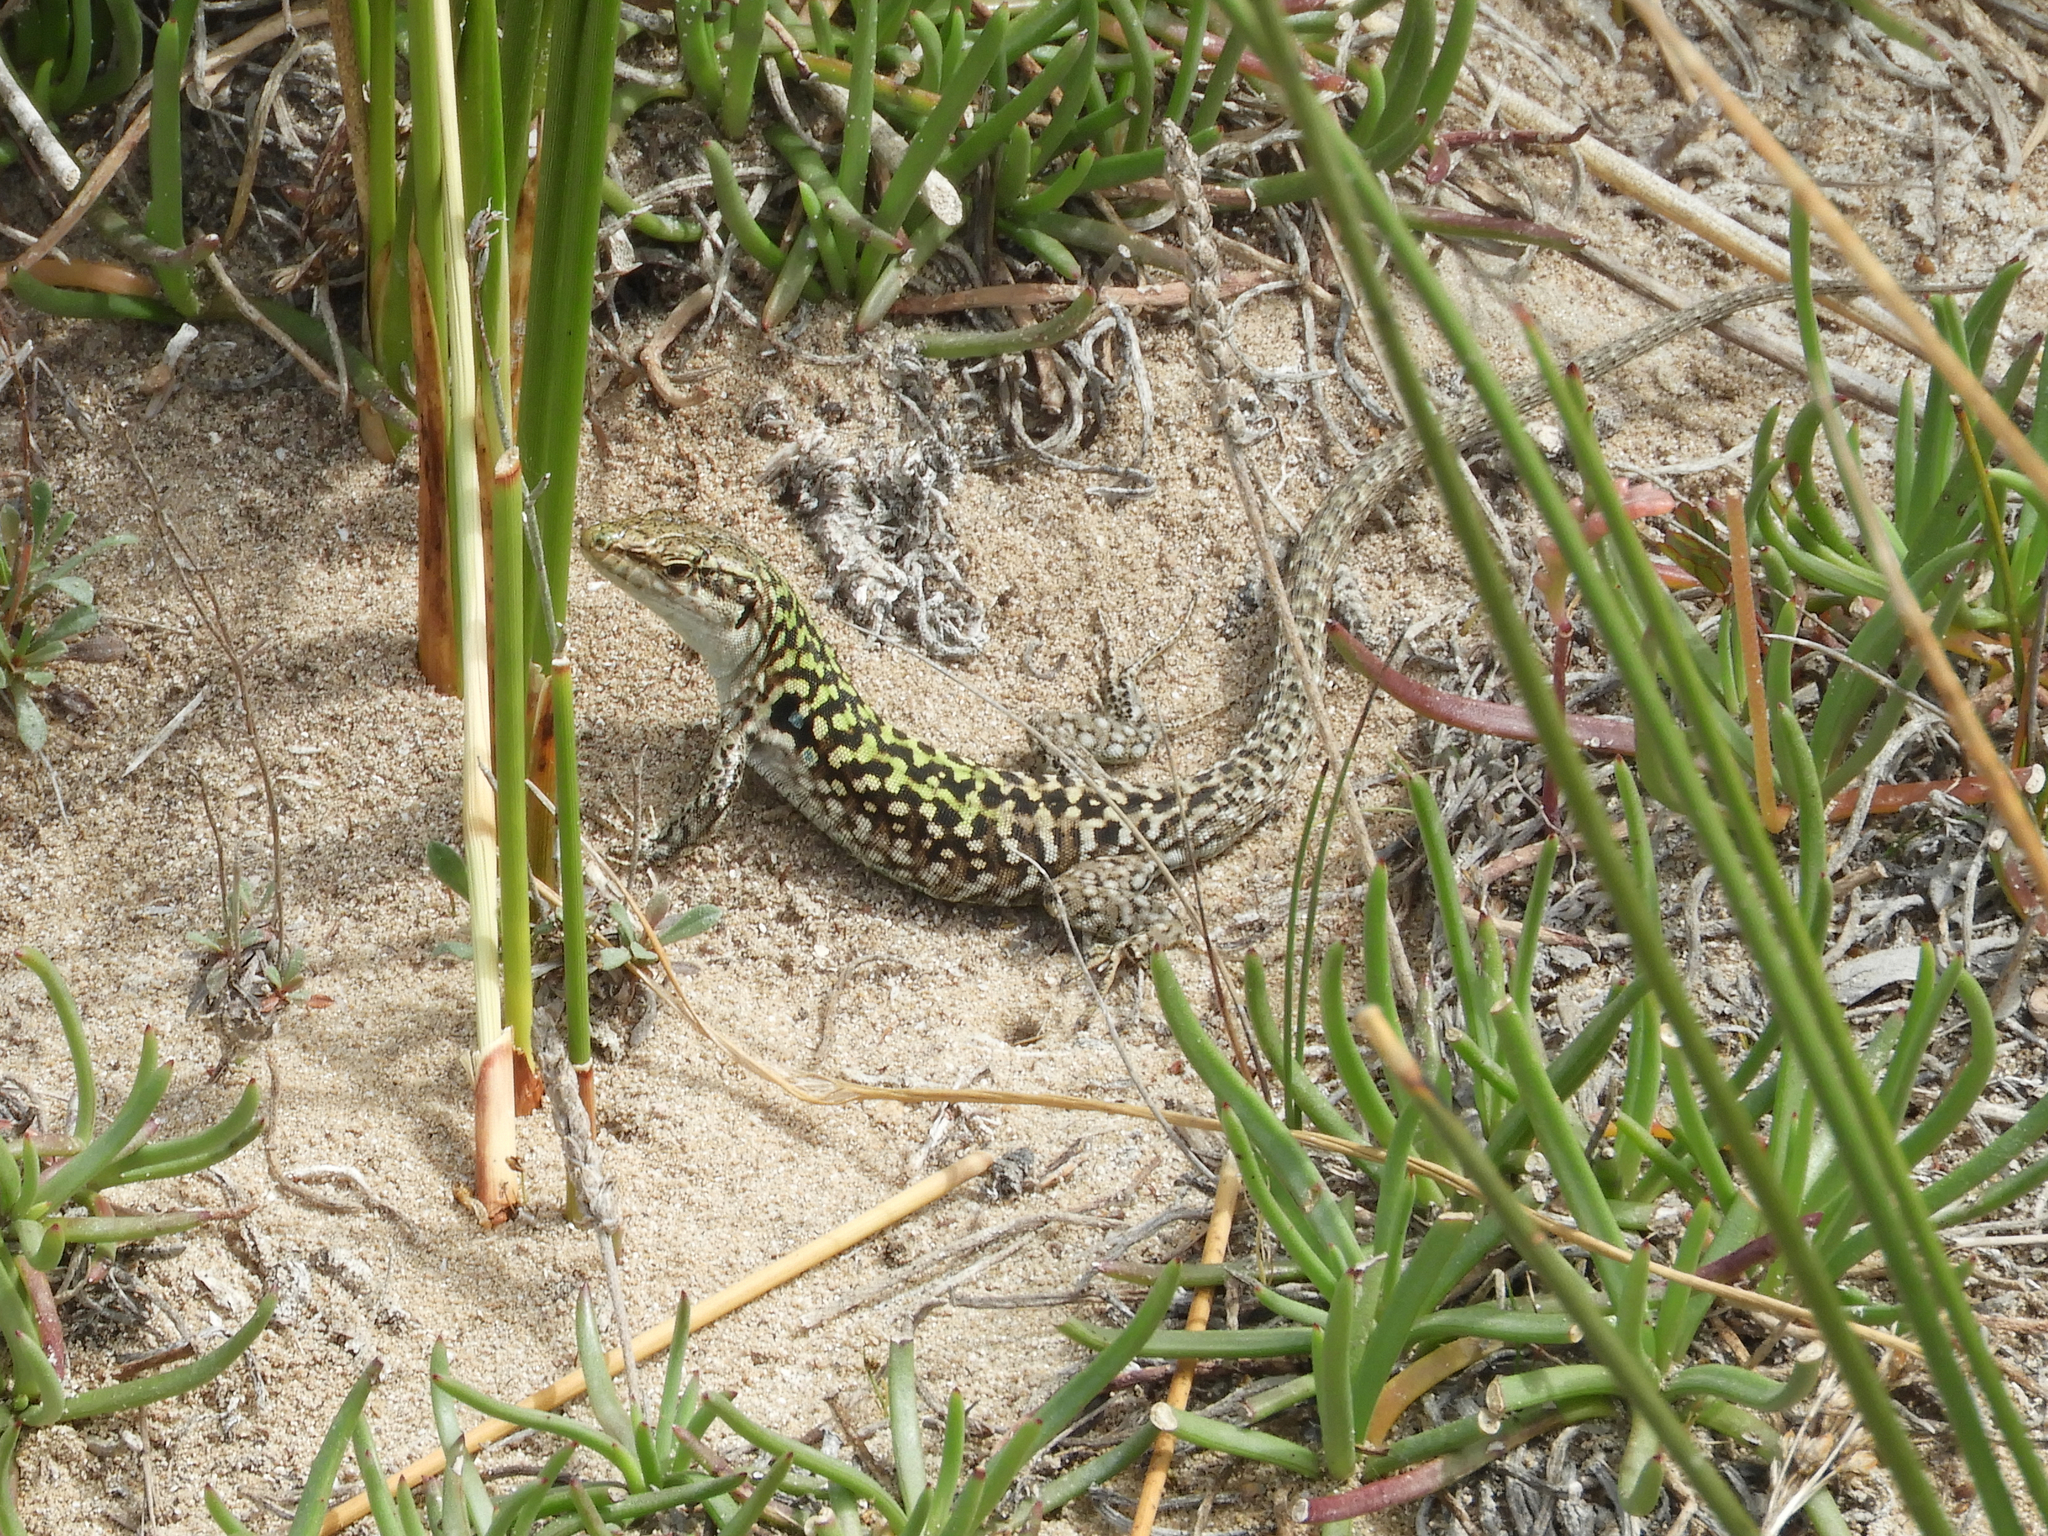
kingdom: Animalia
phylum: Chordata
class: Squamata
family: Lacertidae
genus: Podarcis
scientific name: Podarcis siculus
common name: Italian wall lizard
